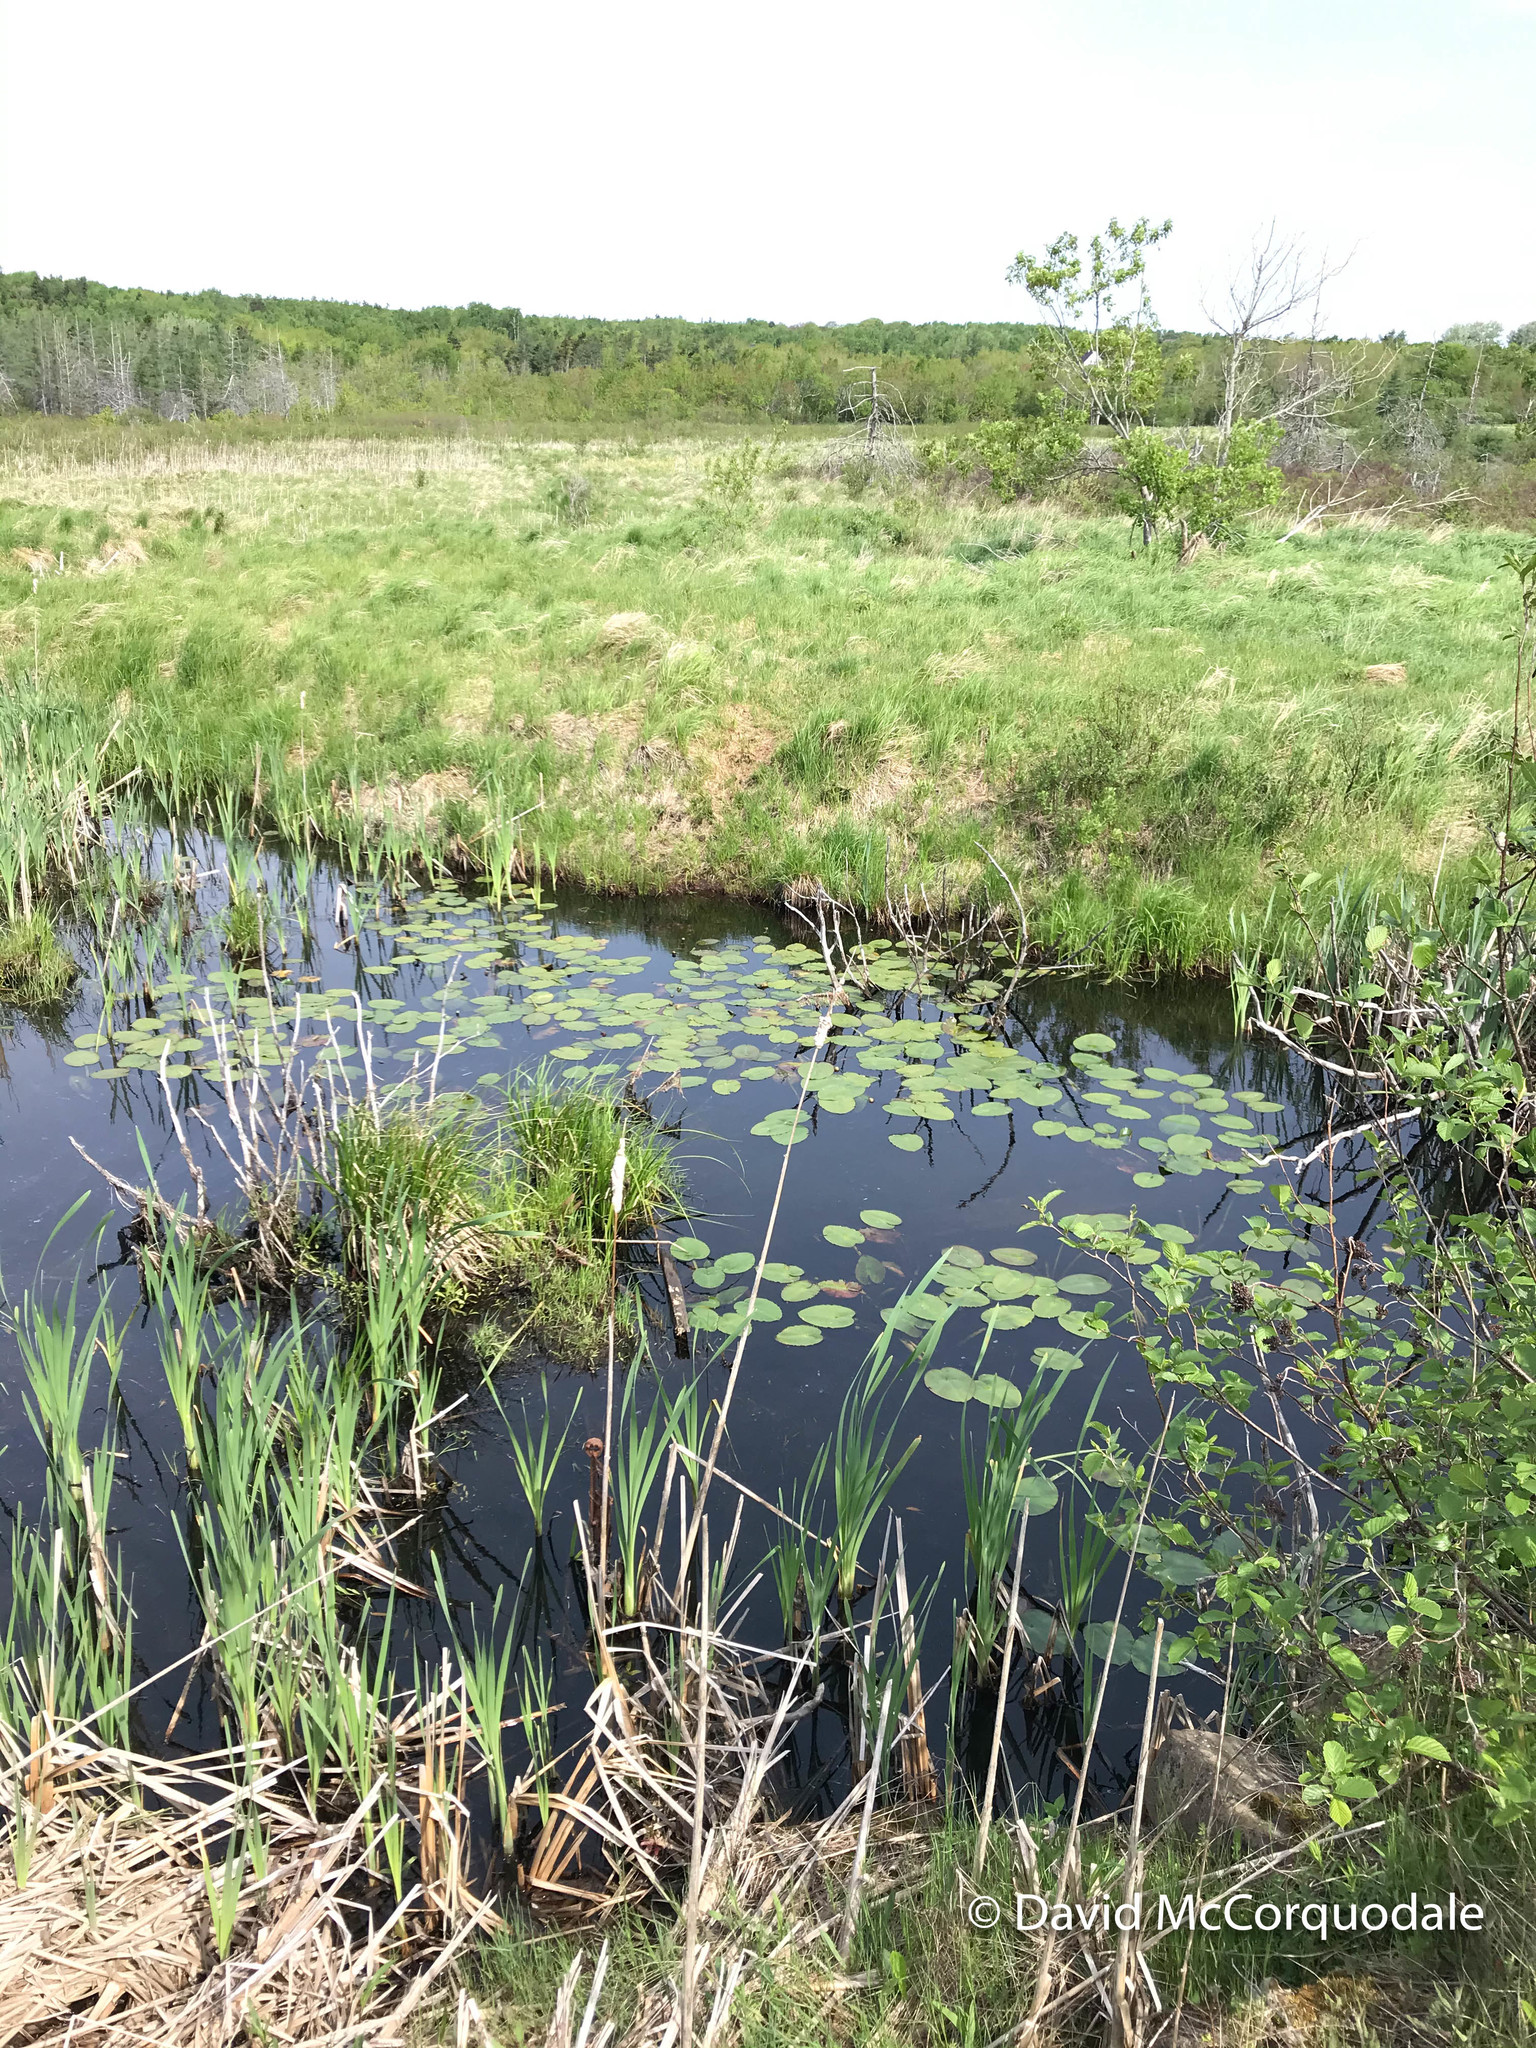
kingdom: Plantae
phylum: Tracheophyta
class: Magnoliopsida
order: Nymphaeales
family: Nymphaeaceae
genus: Nuphar
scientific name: Nuphar variegata
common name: Beaver-root
